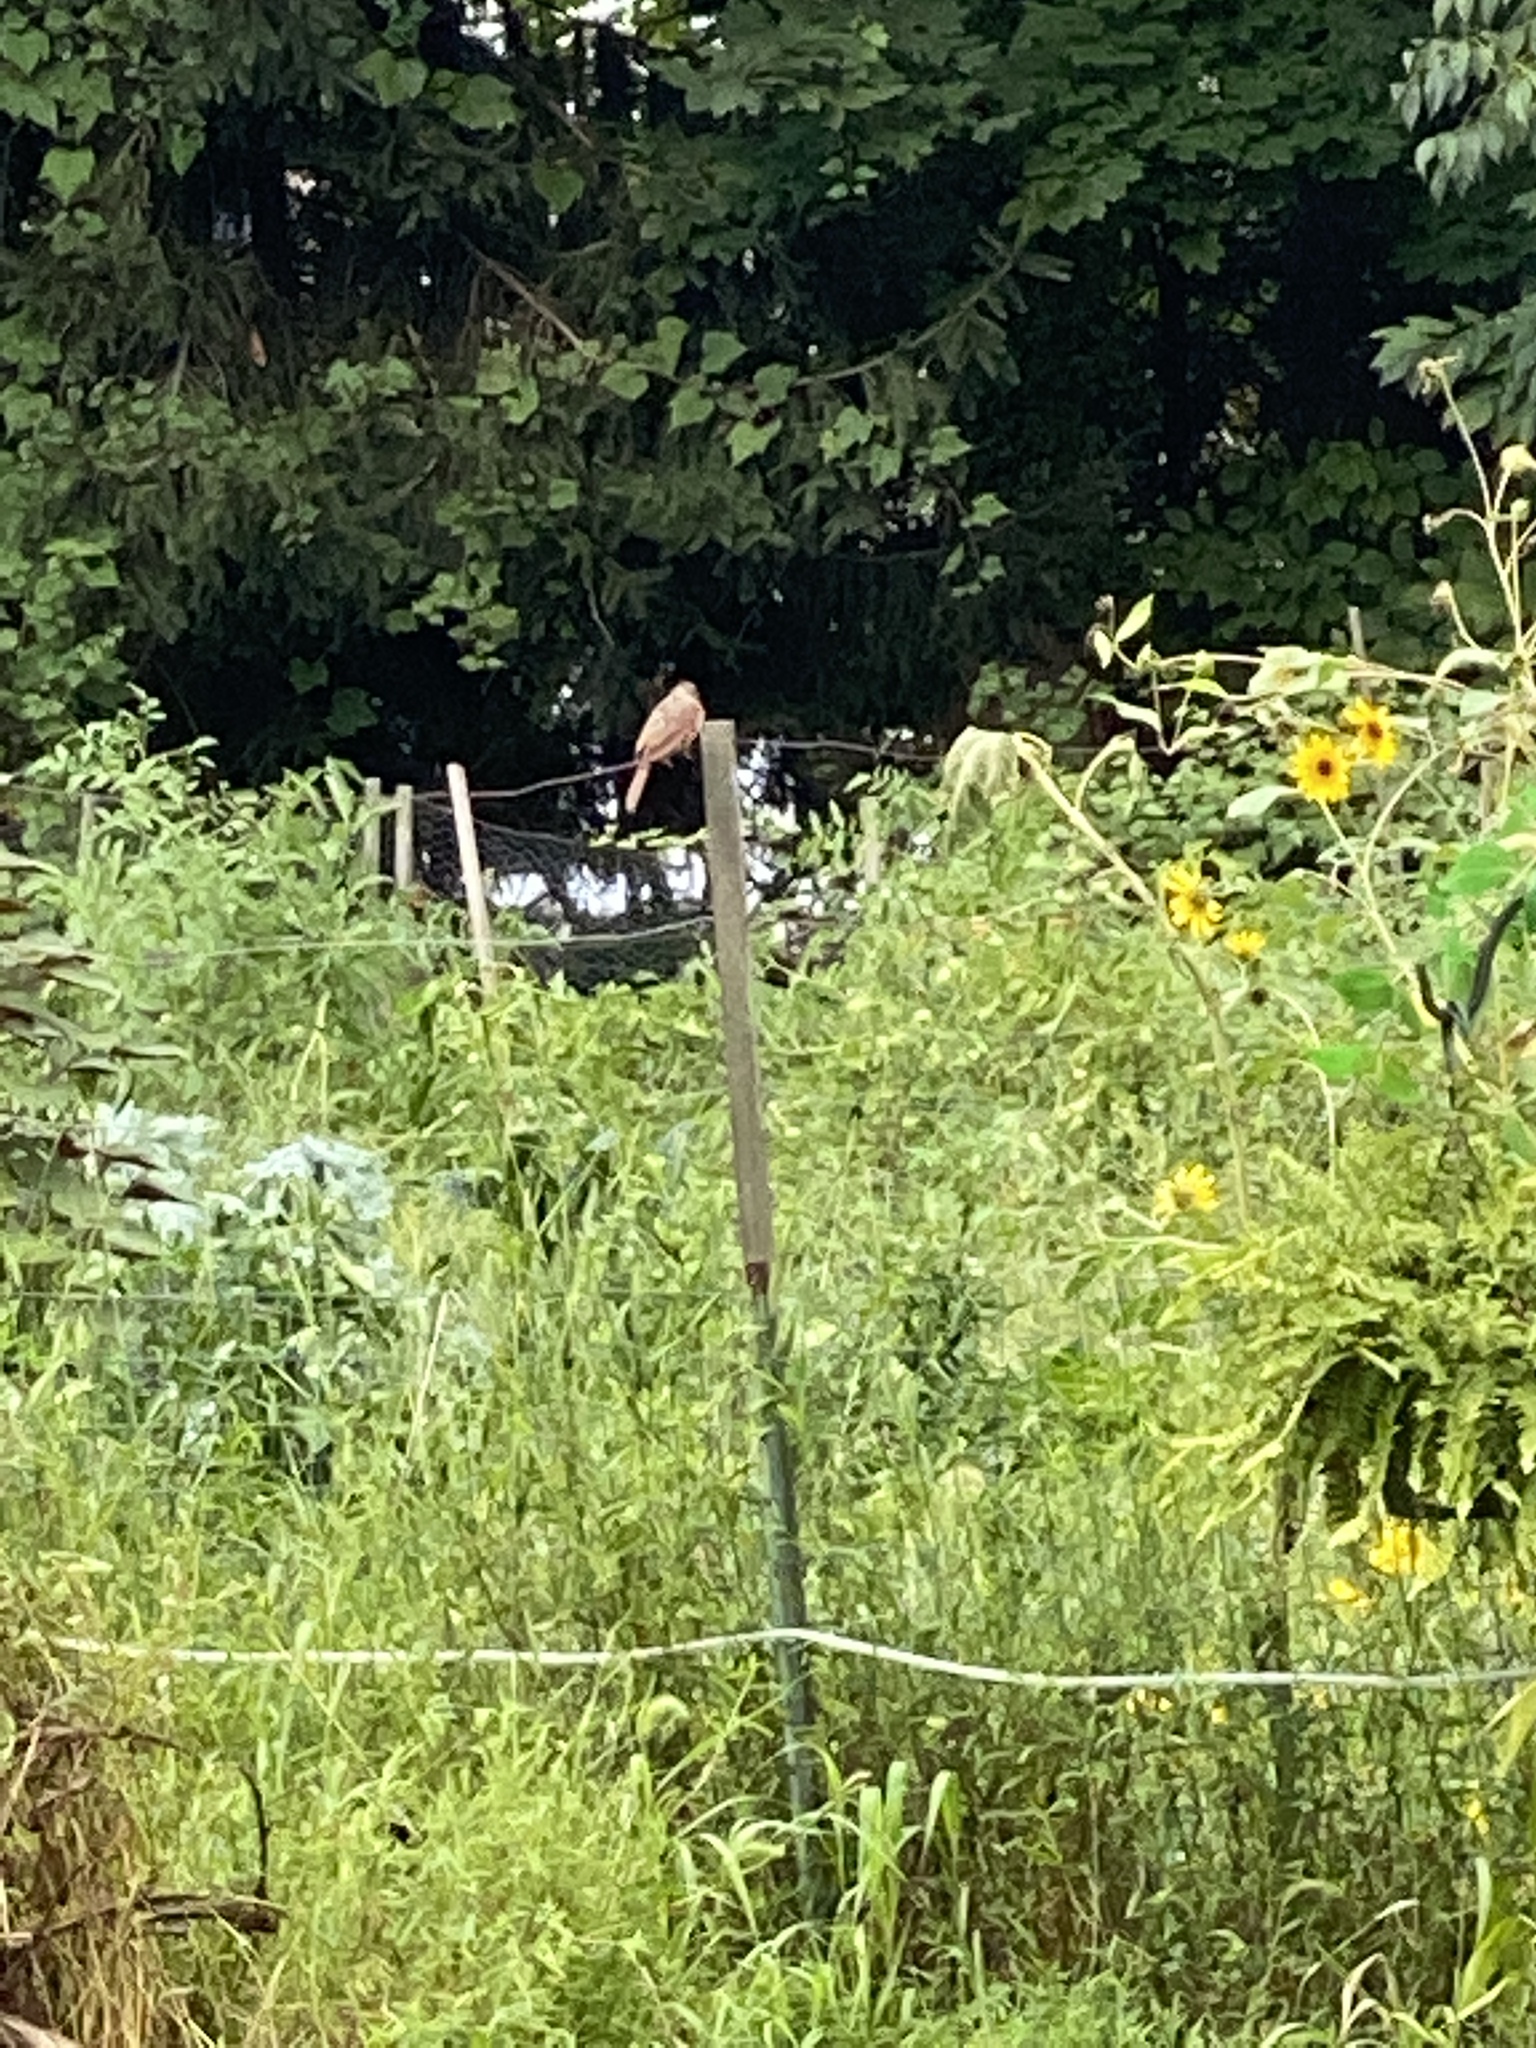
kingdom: Animalia
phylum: Chordata
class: Aves
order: Passeriformes
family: Cardinalidae
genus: Cardinalis
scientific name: Cardinalis cardinalis
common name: Northern cardinal
